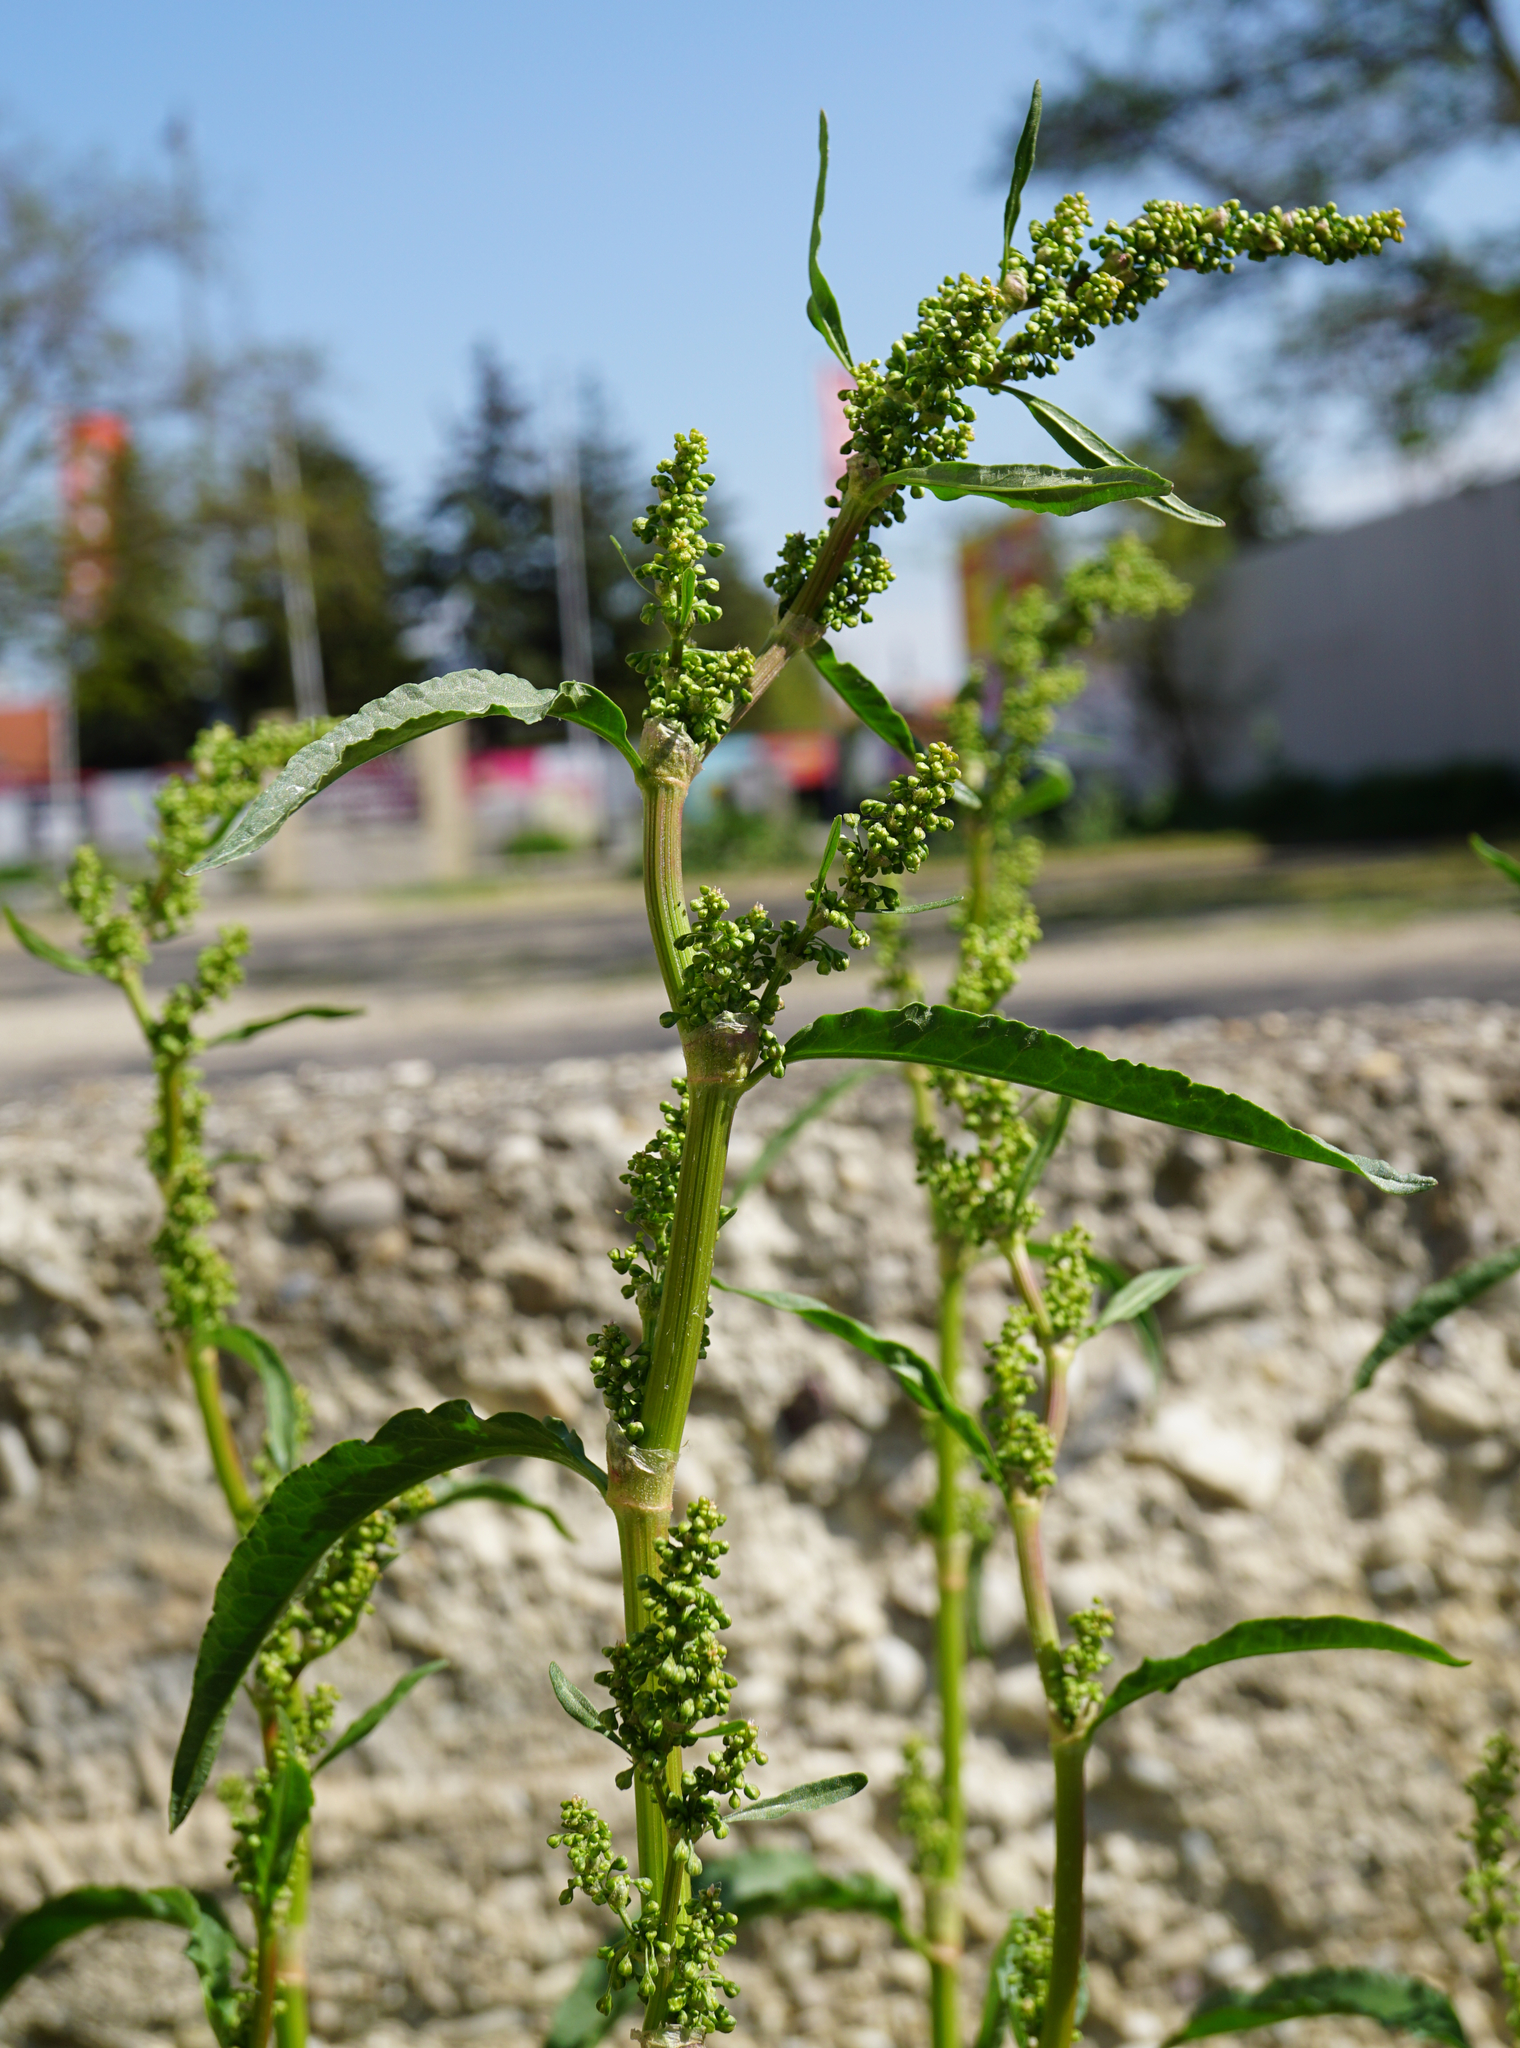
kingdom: Plantae
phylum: Tracheophyta
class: Magnoliopsida
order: Caryophyllales
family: Polygonaceae
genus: Rumex
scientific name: Rumex crispus
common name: Curled dock
